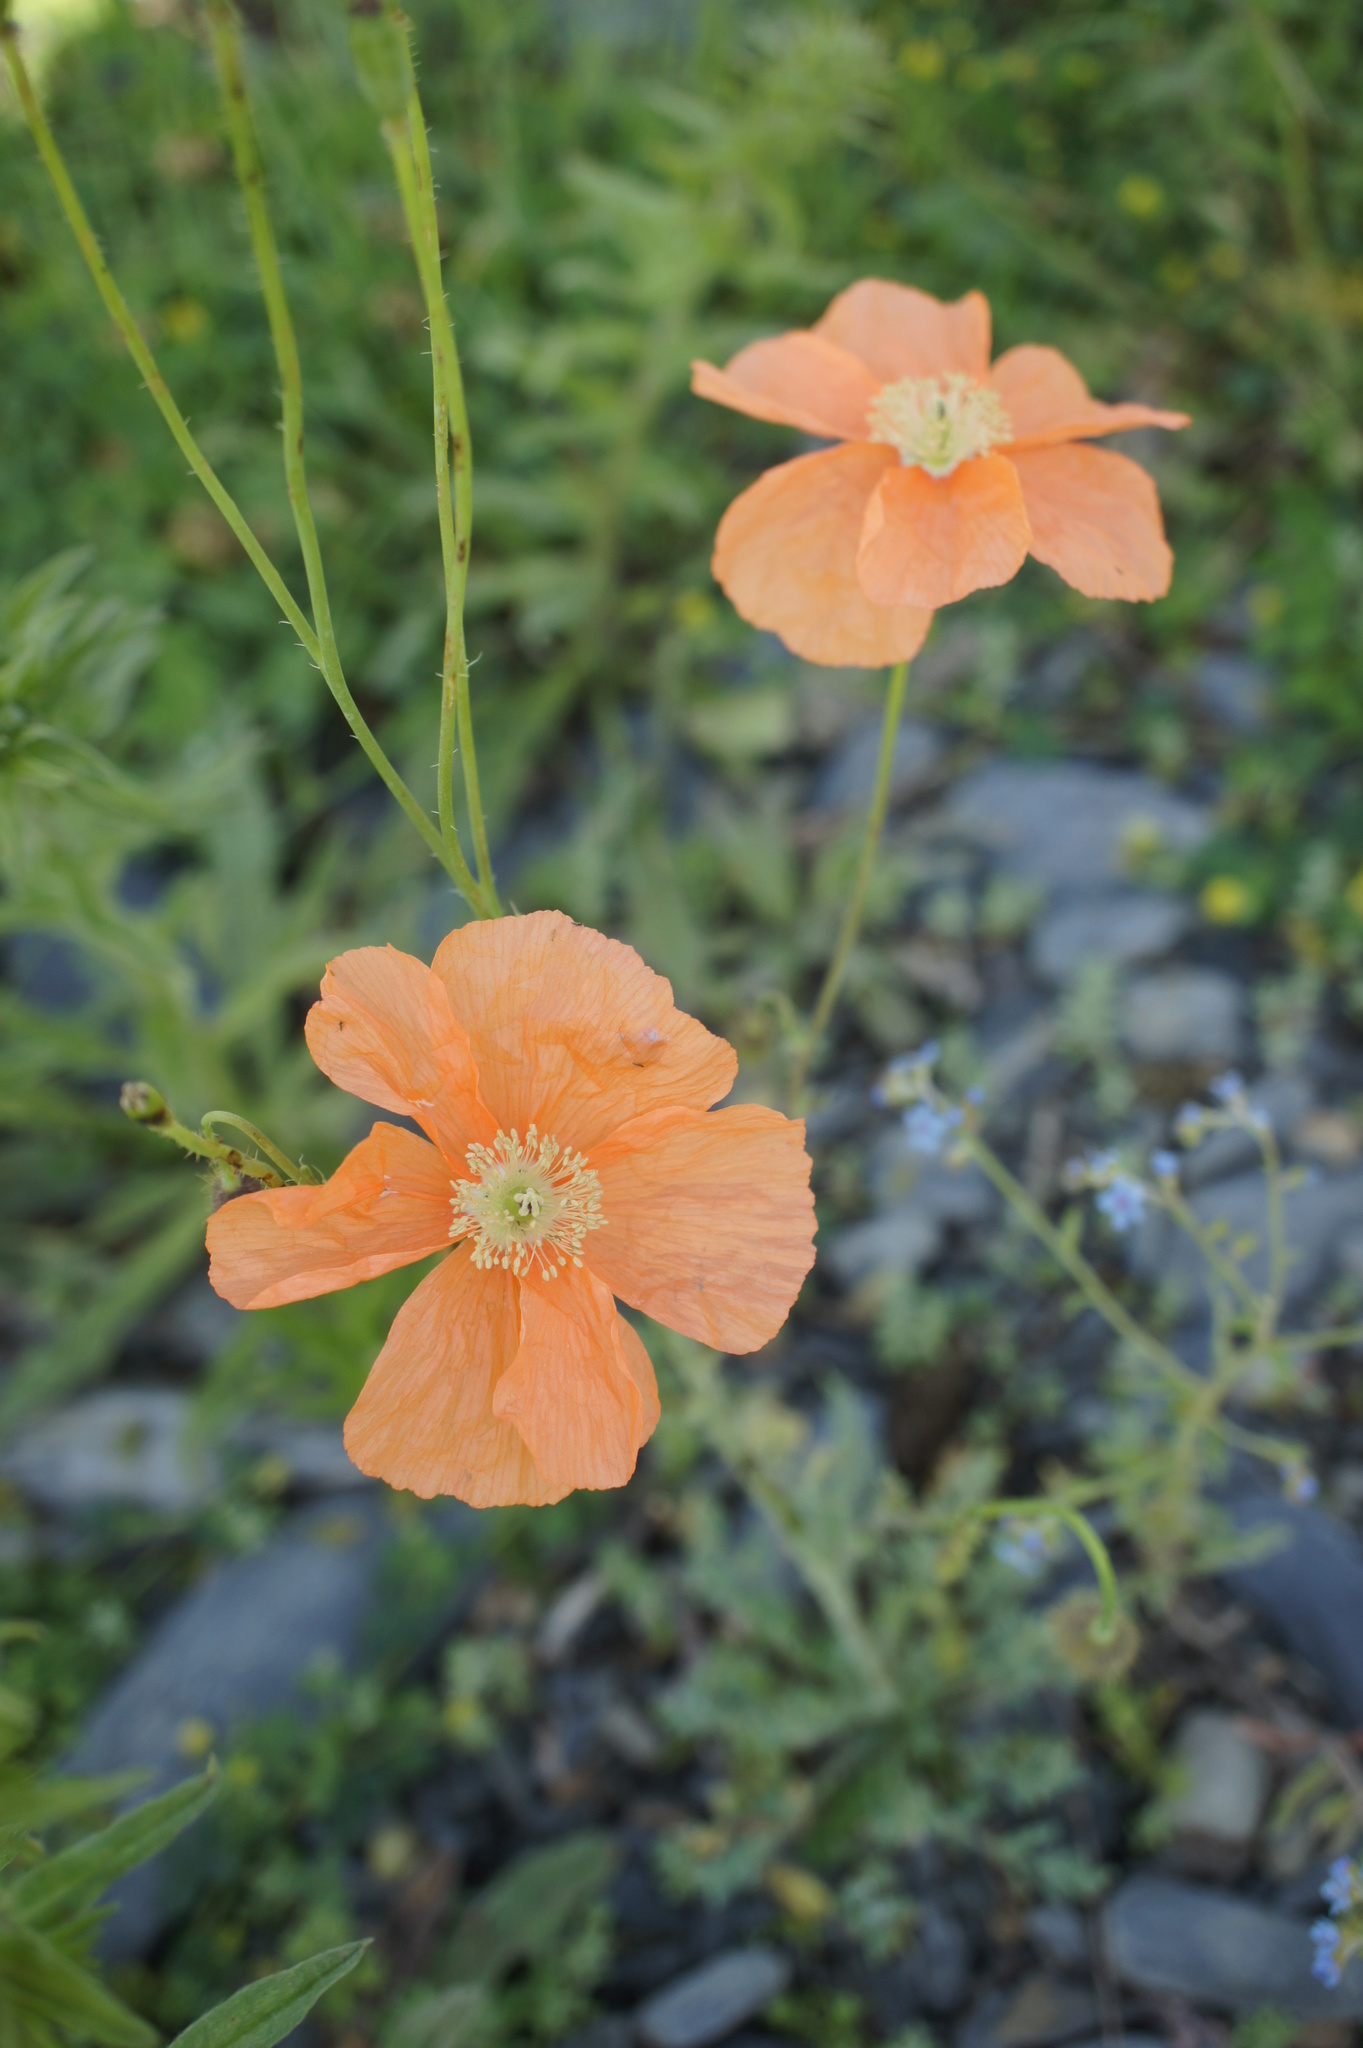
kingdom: Plantae
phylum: Tracheophyta
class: Magnoliopsida
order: Ranunculales
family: Papaveraceae
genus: Papaver
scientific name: Papaver armeniacum
